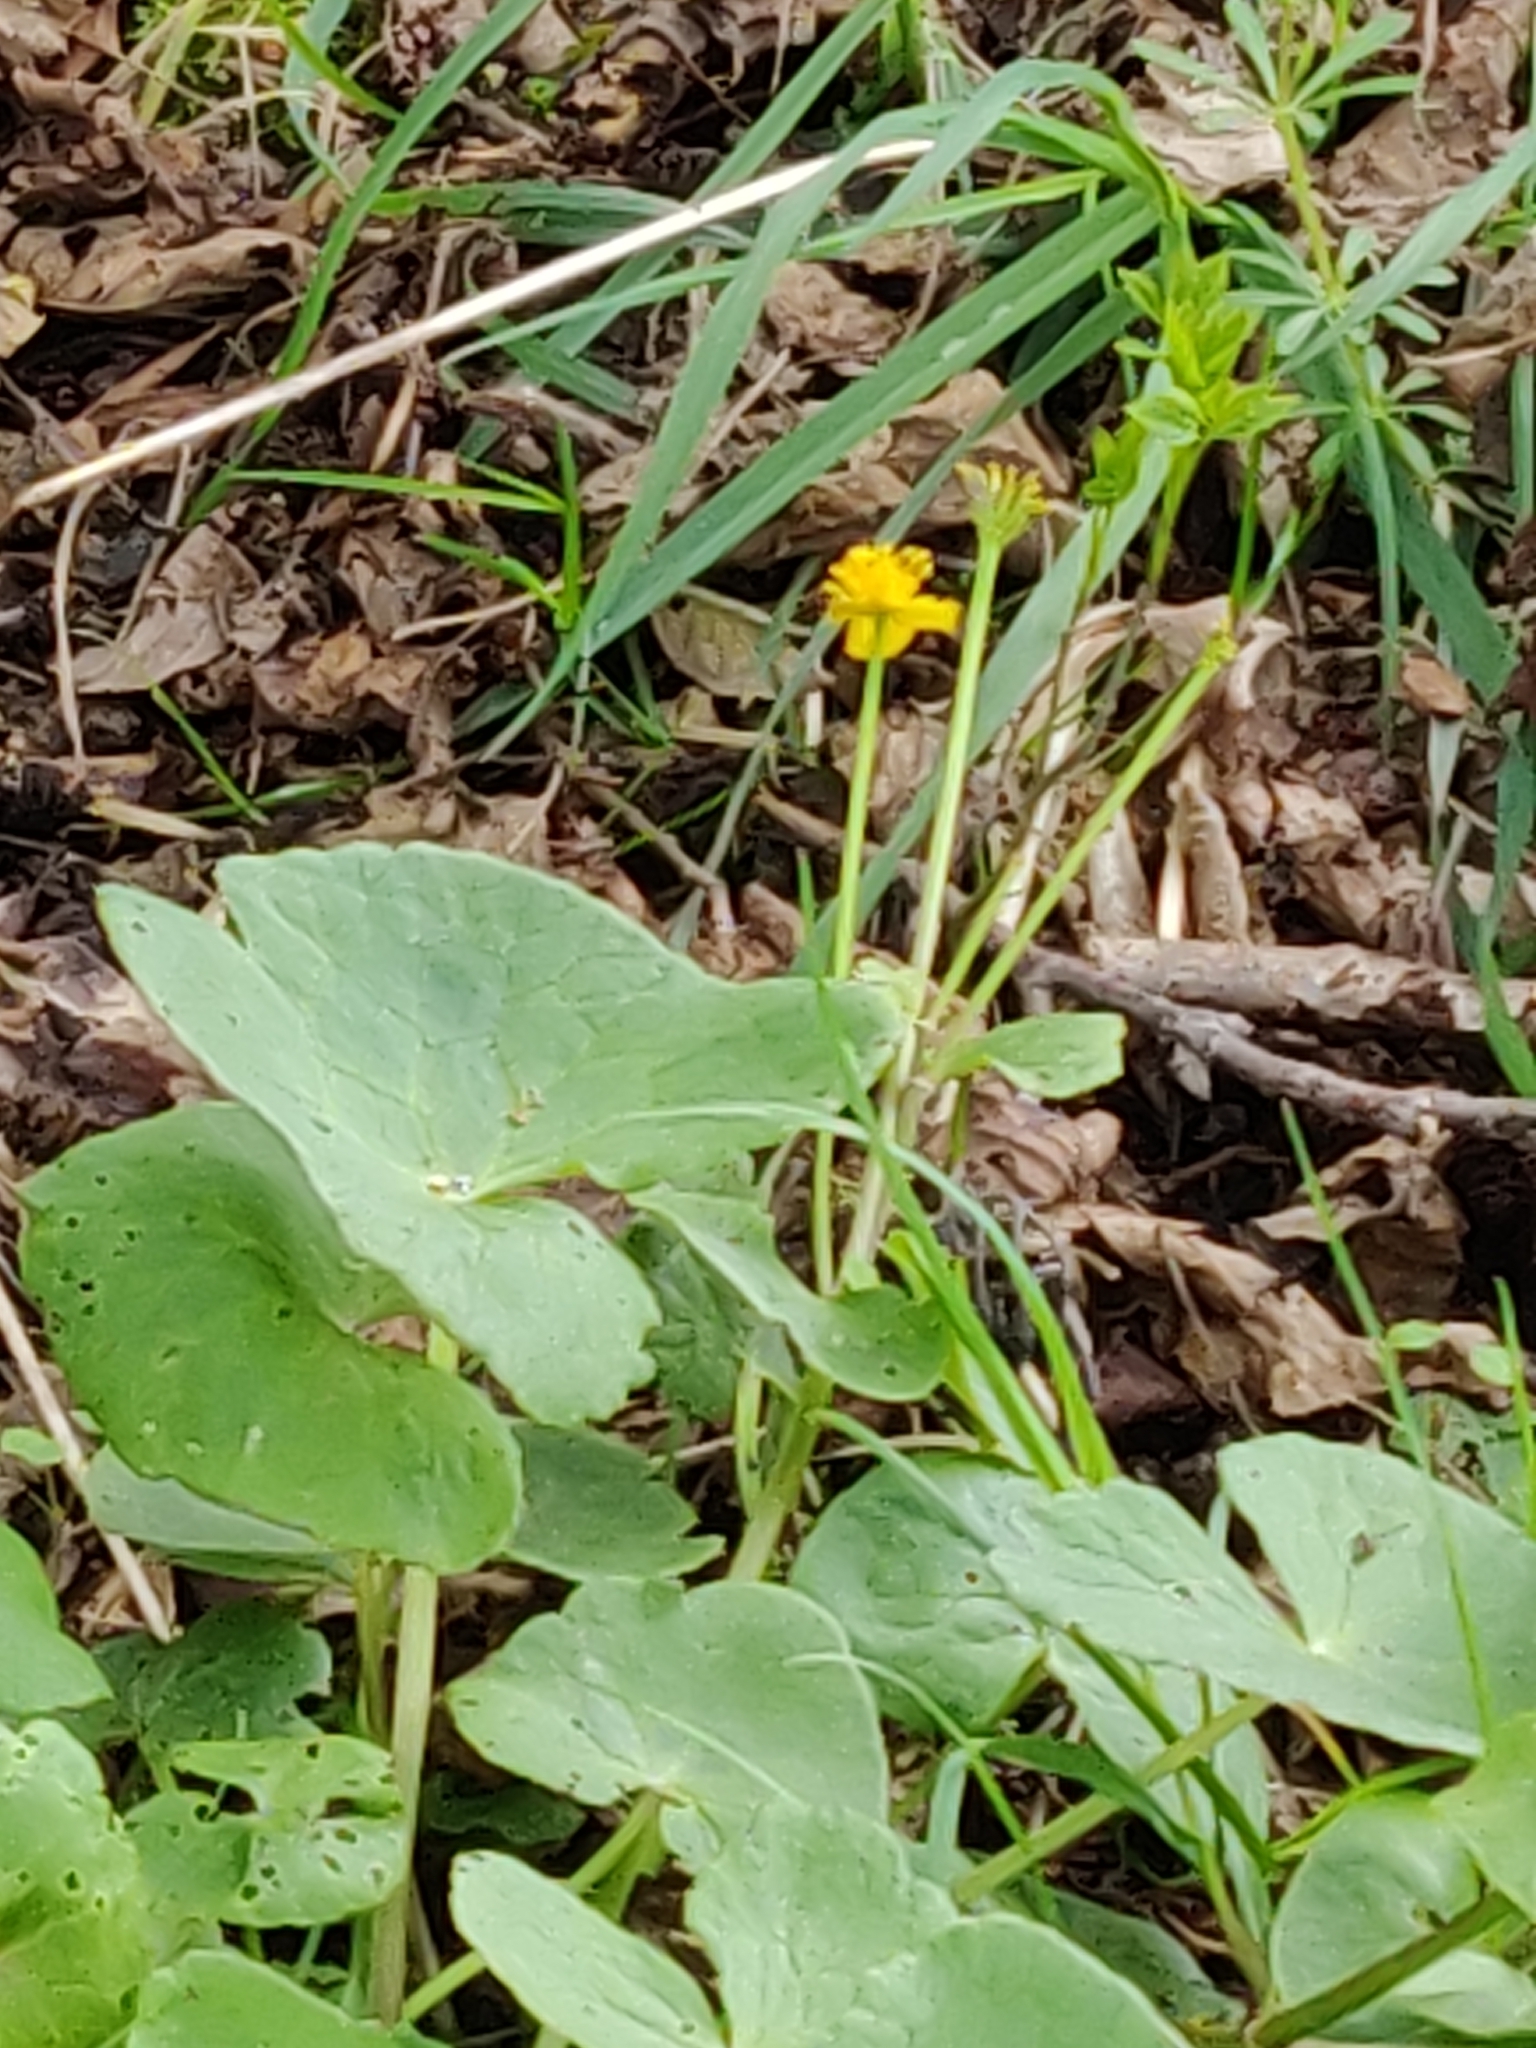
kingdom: Plantae
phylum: Tracheophyta
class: Magnoliopsida
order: Ranunculales
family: Ranunculaceae
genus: Caltha
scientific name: Caltha palustris
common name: Marsh marigold
